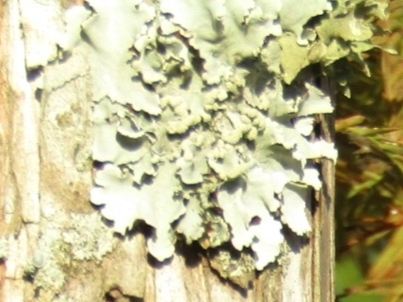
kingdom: Fungi
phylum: Ascomycota
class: Lecanoromycetes
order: Lecanorales
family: Parmeliaceae
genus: Flavoparmelia
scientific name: Flavoparmelia caperata
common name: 40-mile per hour lichen
